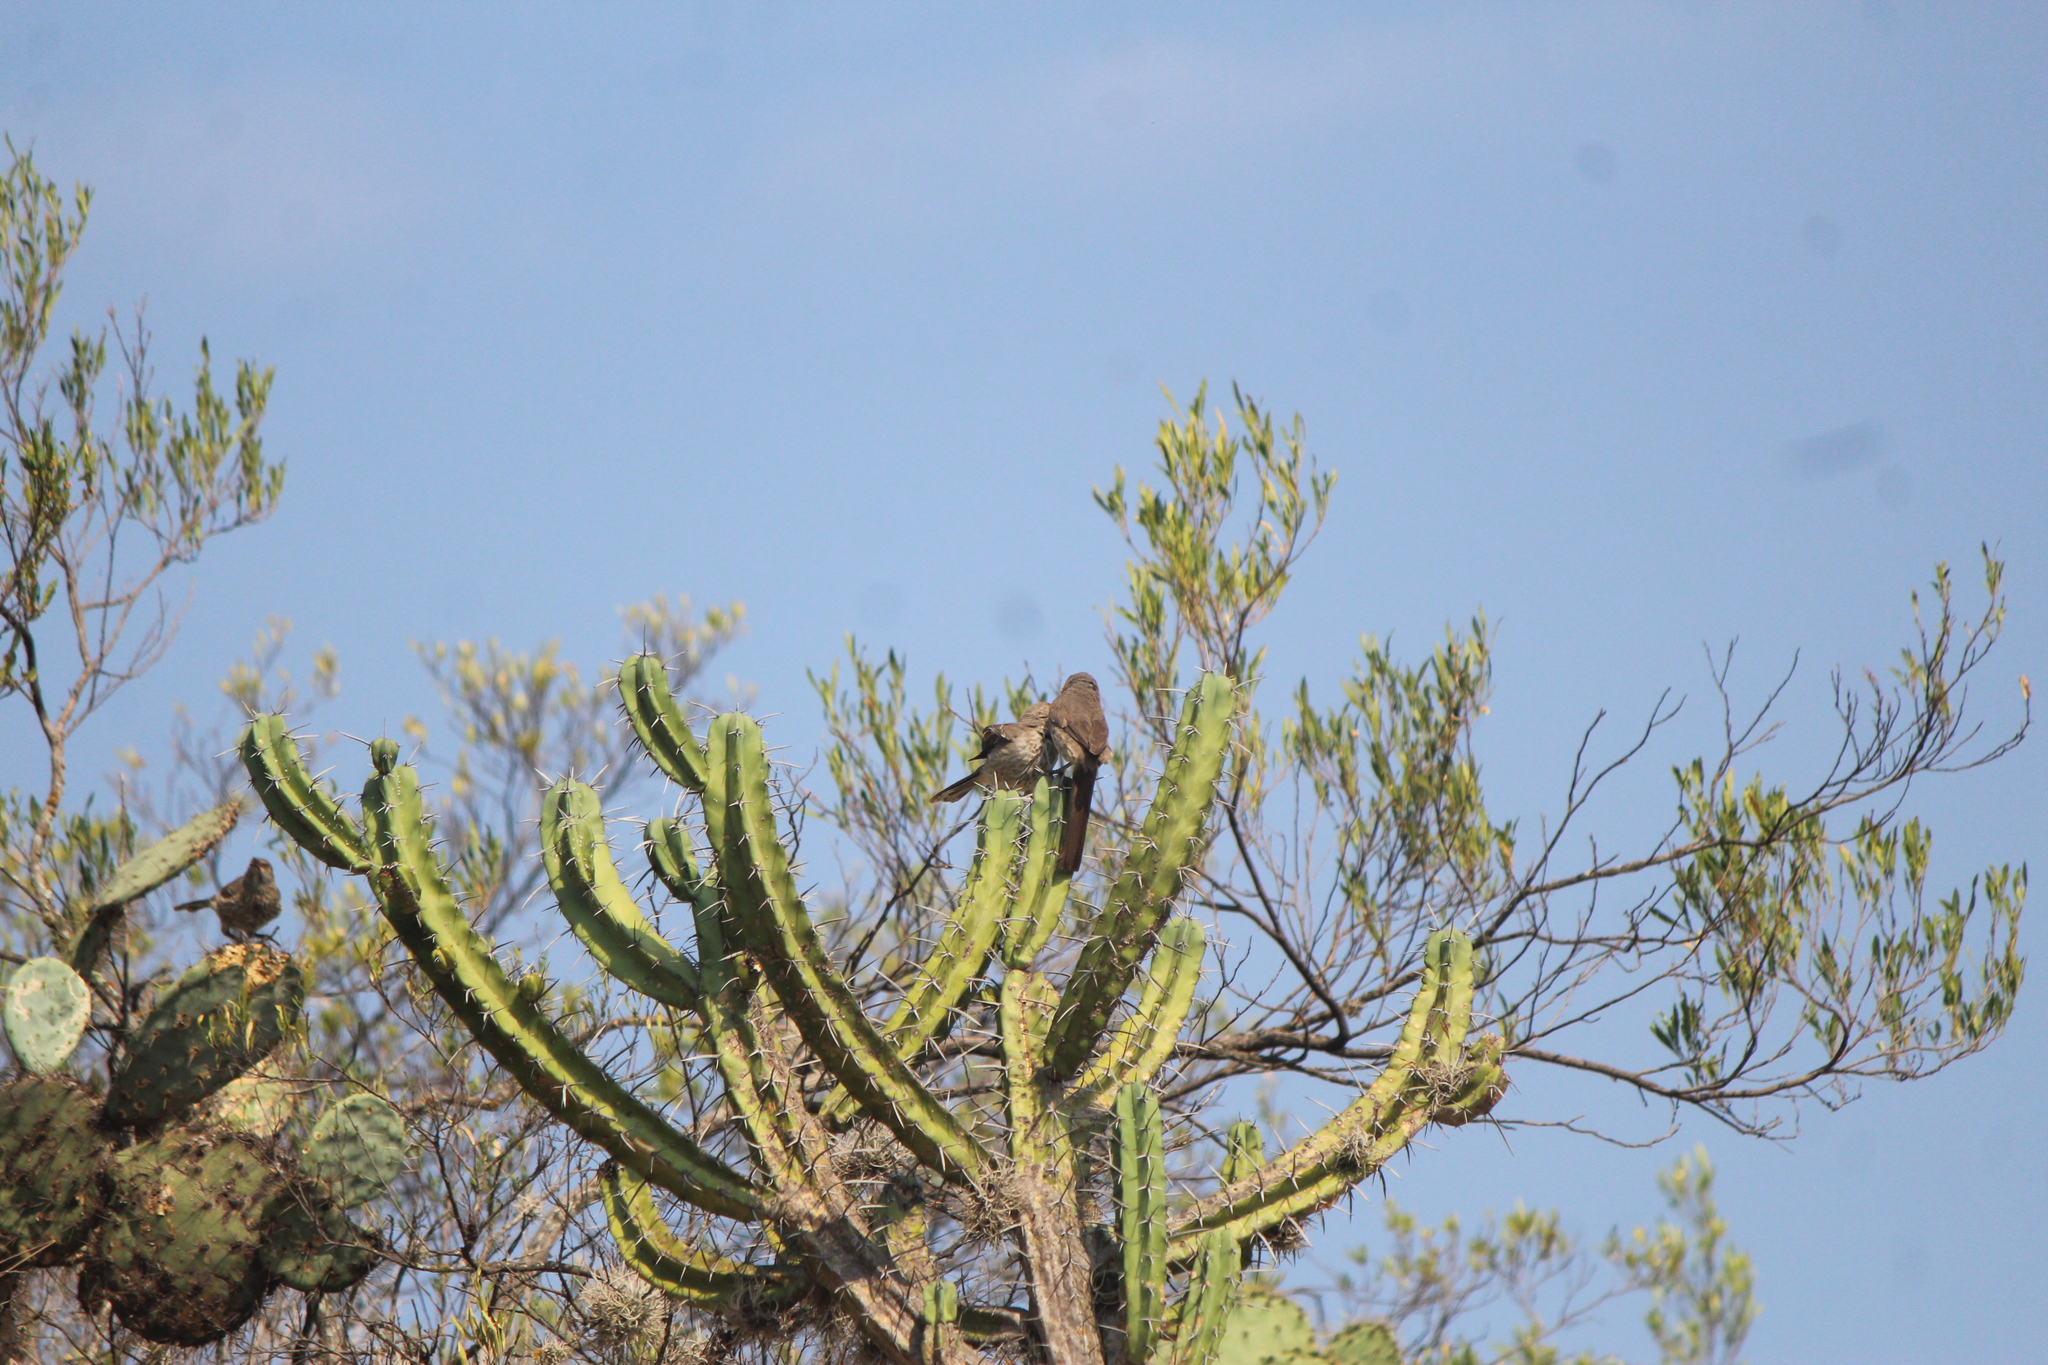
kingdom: Animalia
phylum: Chordata
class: Aves
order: Passeriformes
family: Mimidae
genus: Toxostoma
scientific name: Toxostoma curvirostre
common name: Curve-billed thrasher
